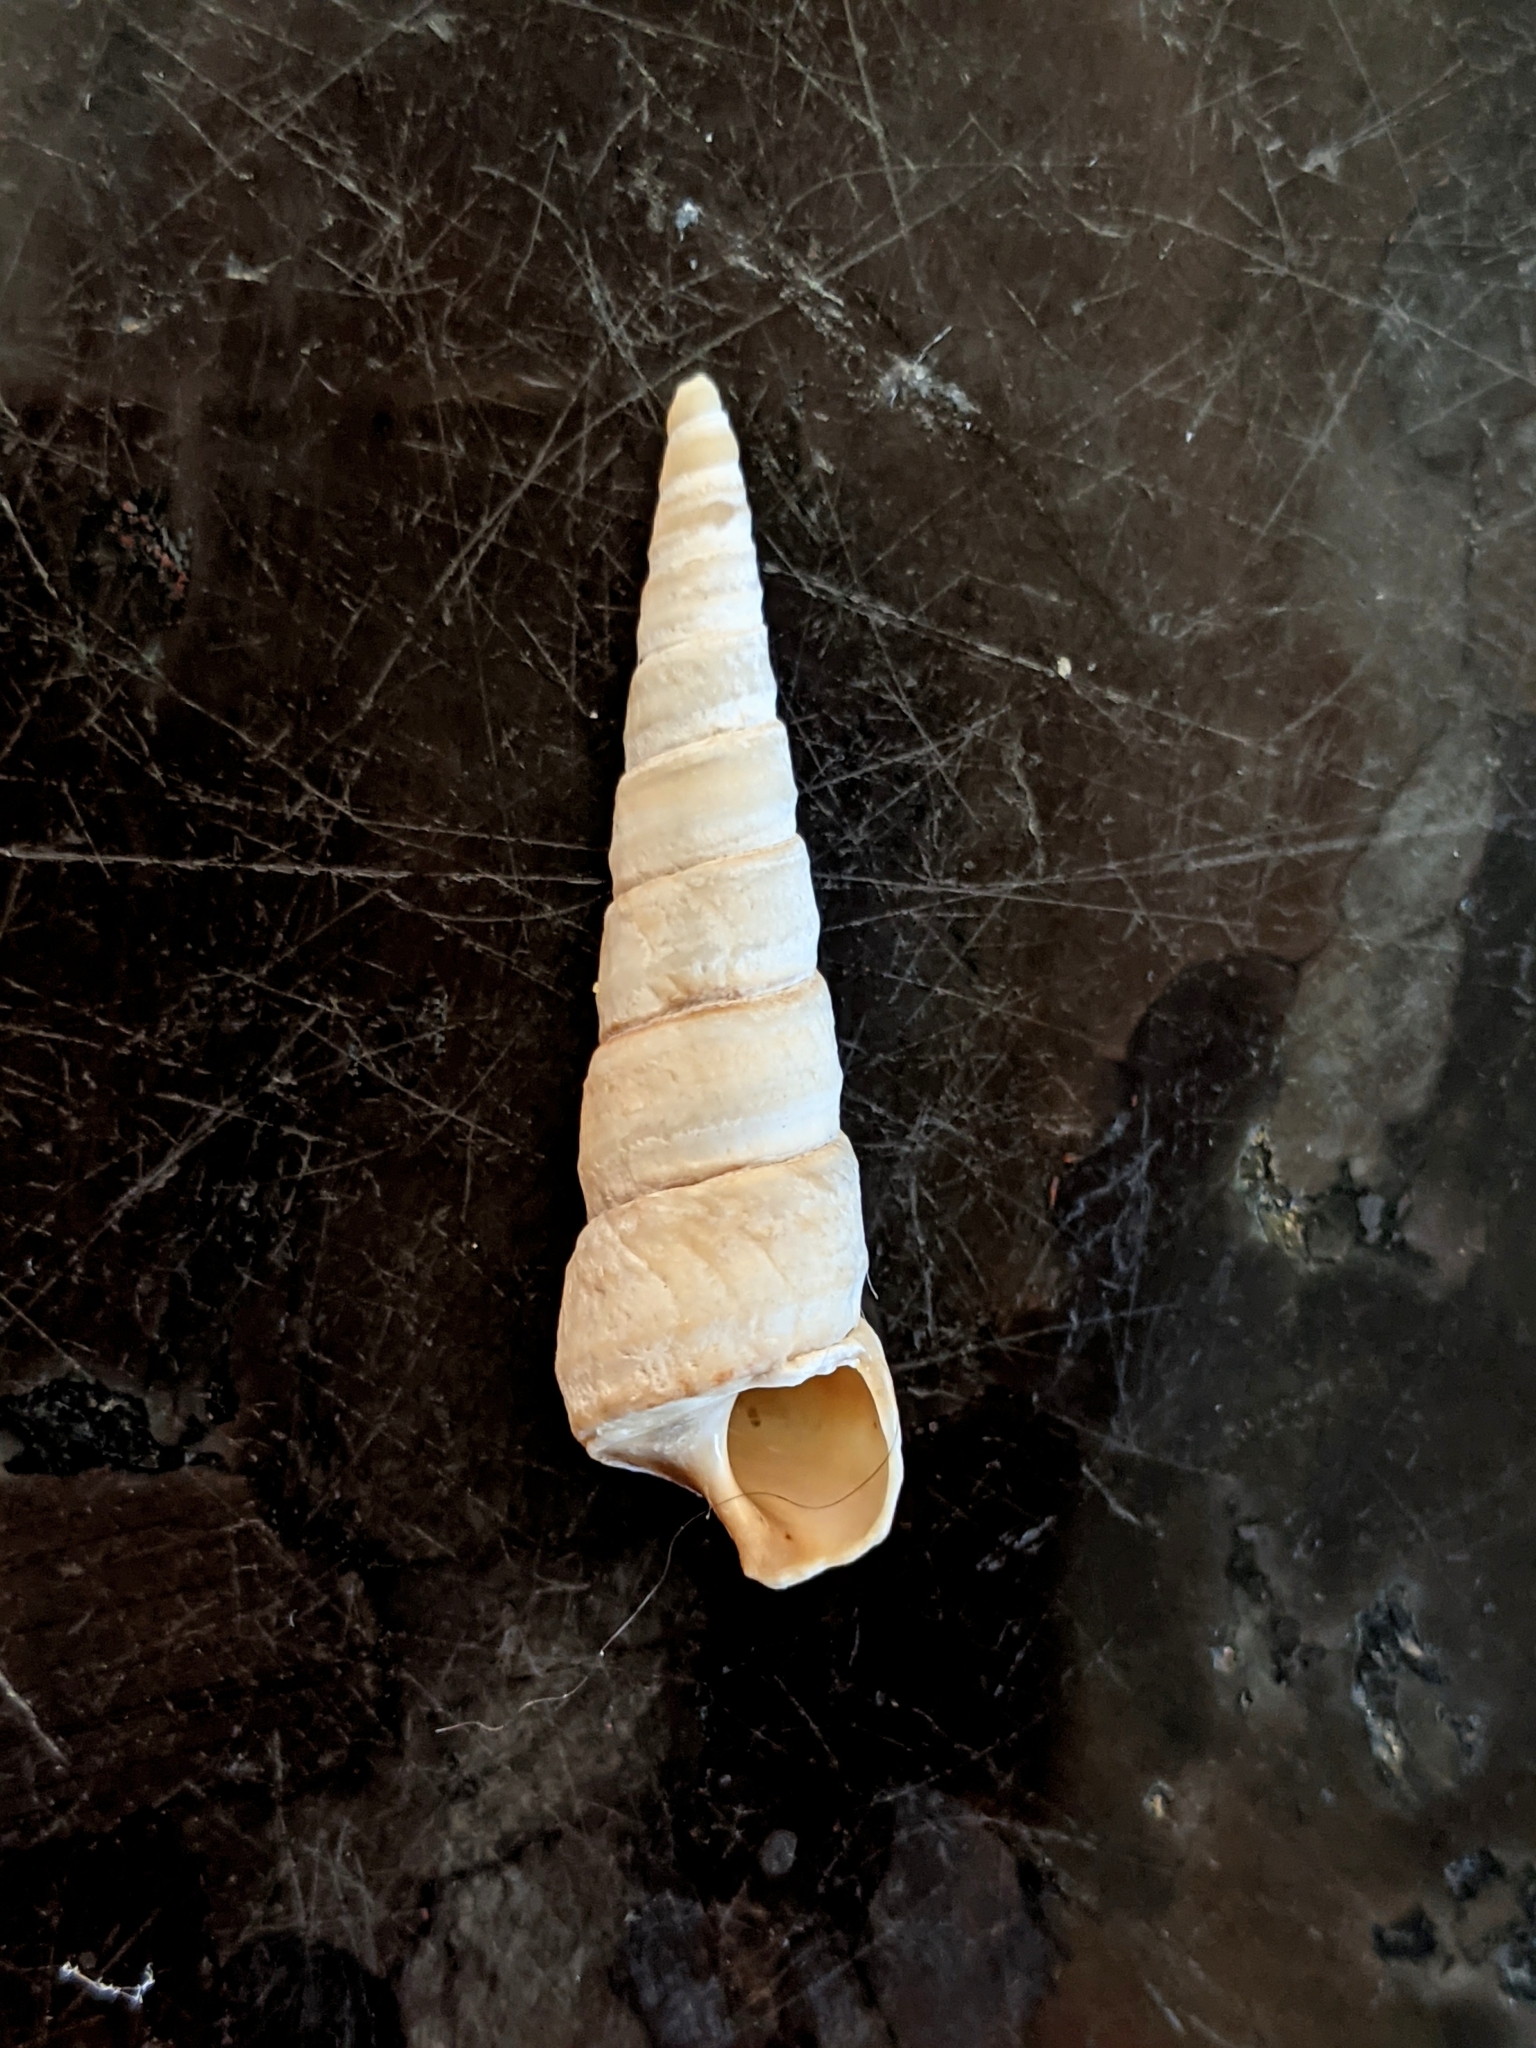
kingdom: Animalia
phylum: Mollusca
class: Gastropoda
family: Turritellidae
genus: Turritella
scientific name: Turritella cooperi
